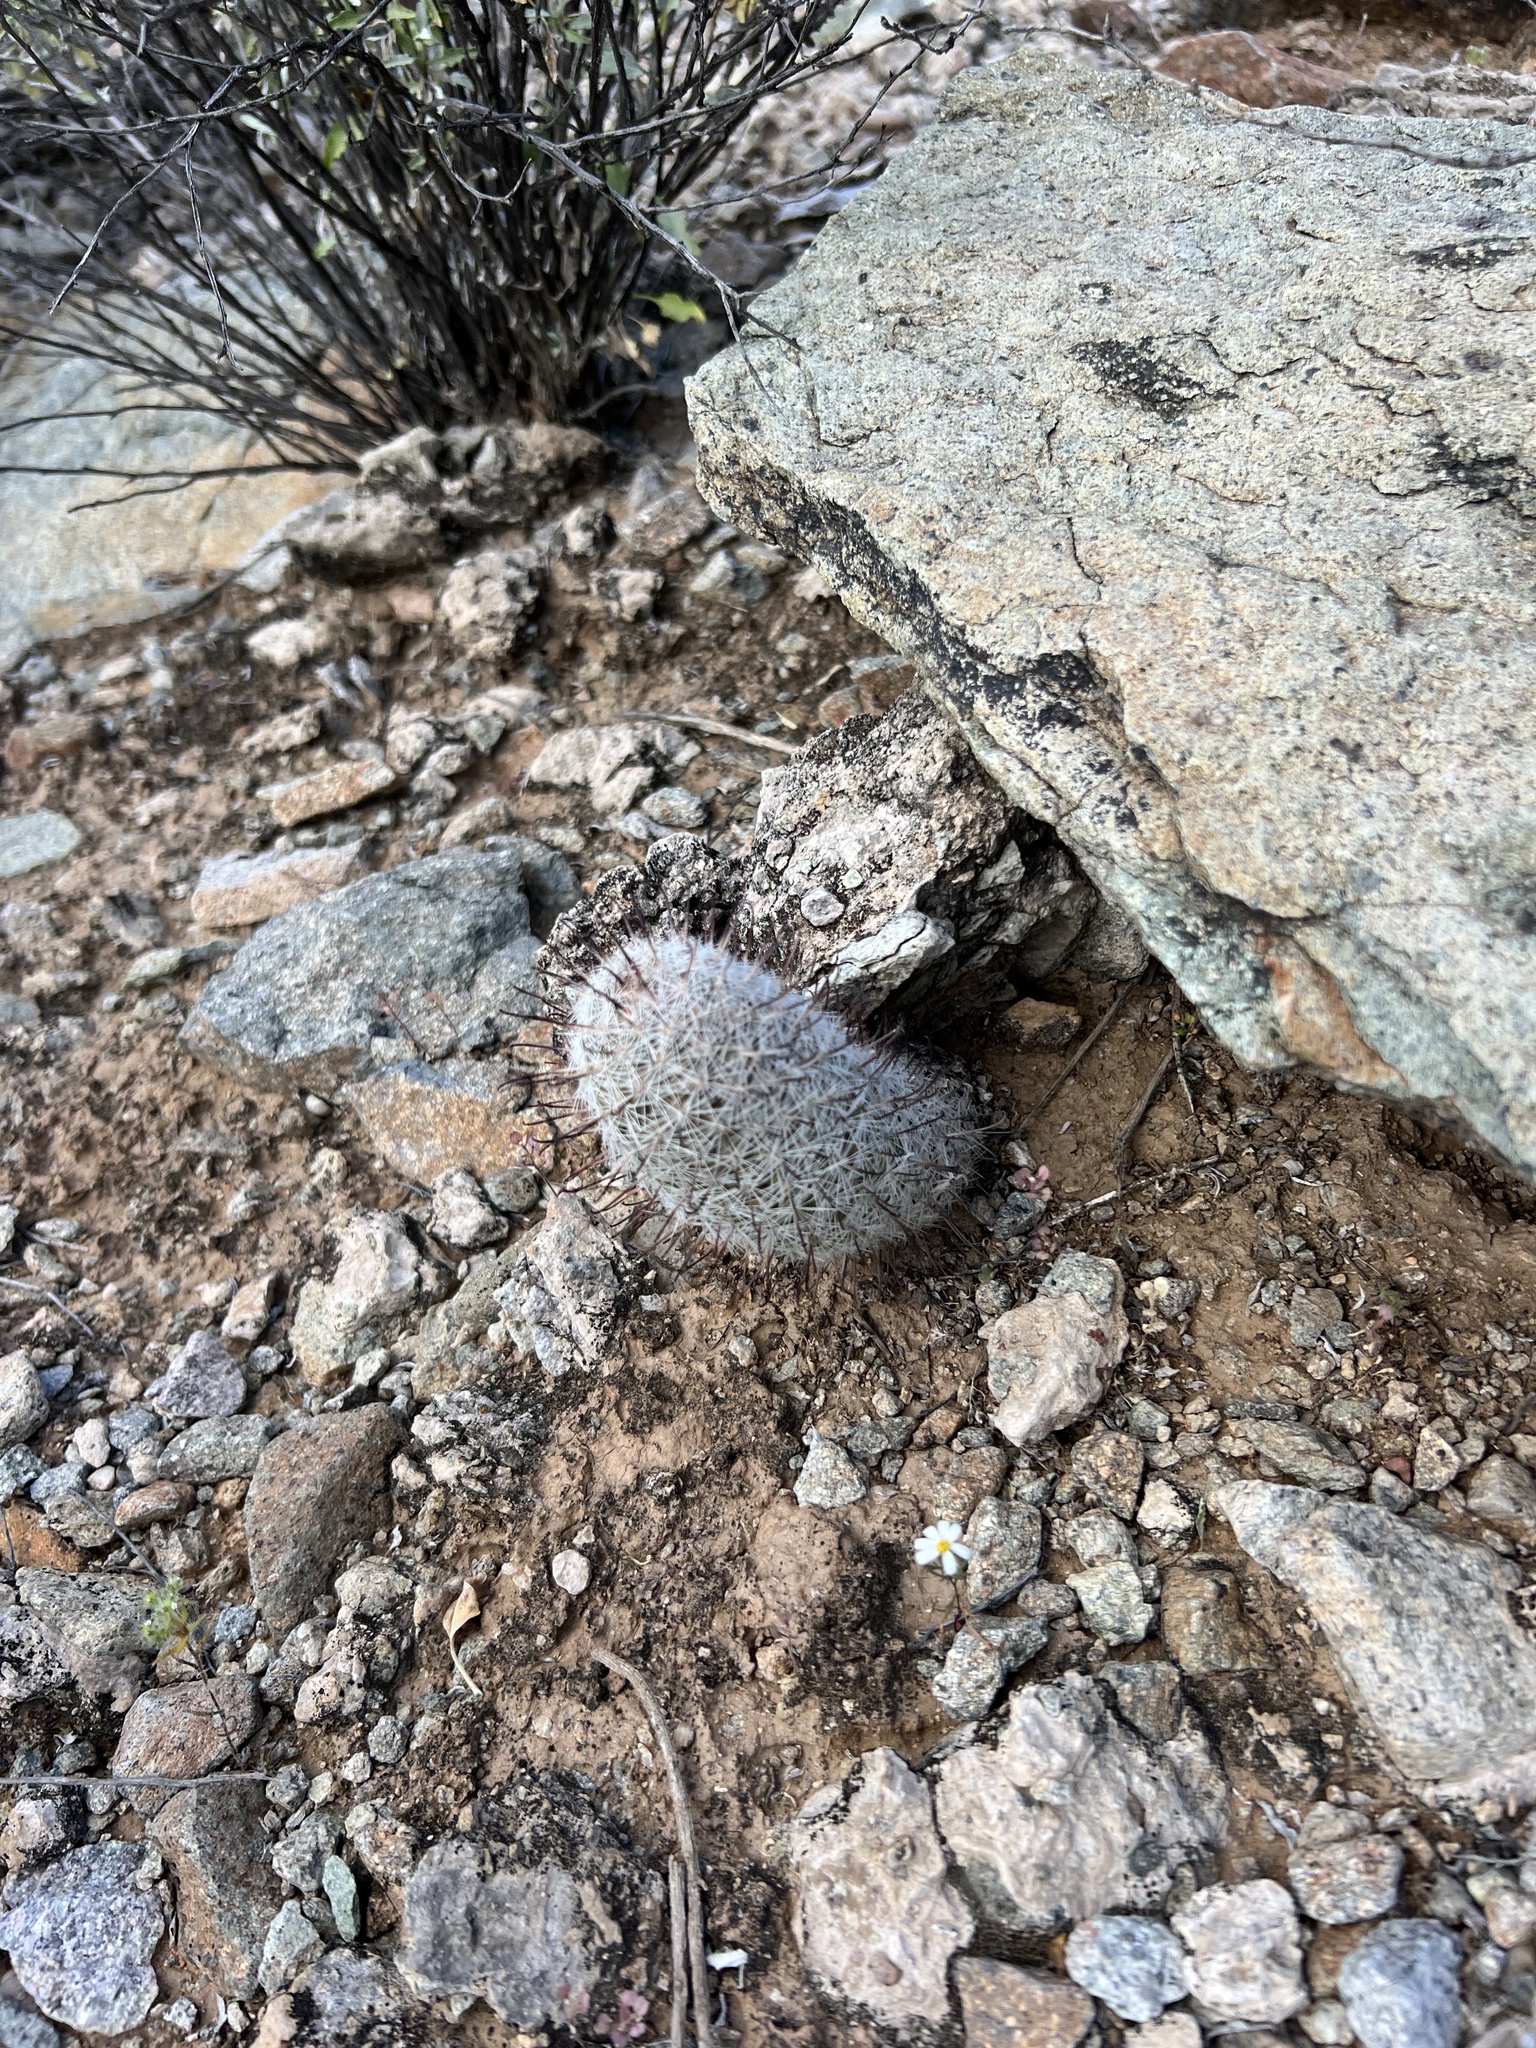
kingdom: Plantae
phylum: Tracheophyta
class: Magnoliopsida
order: Caryophyllales
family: Cactaceae
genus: Cochemiea
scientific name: Cochemiea grahamii
